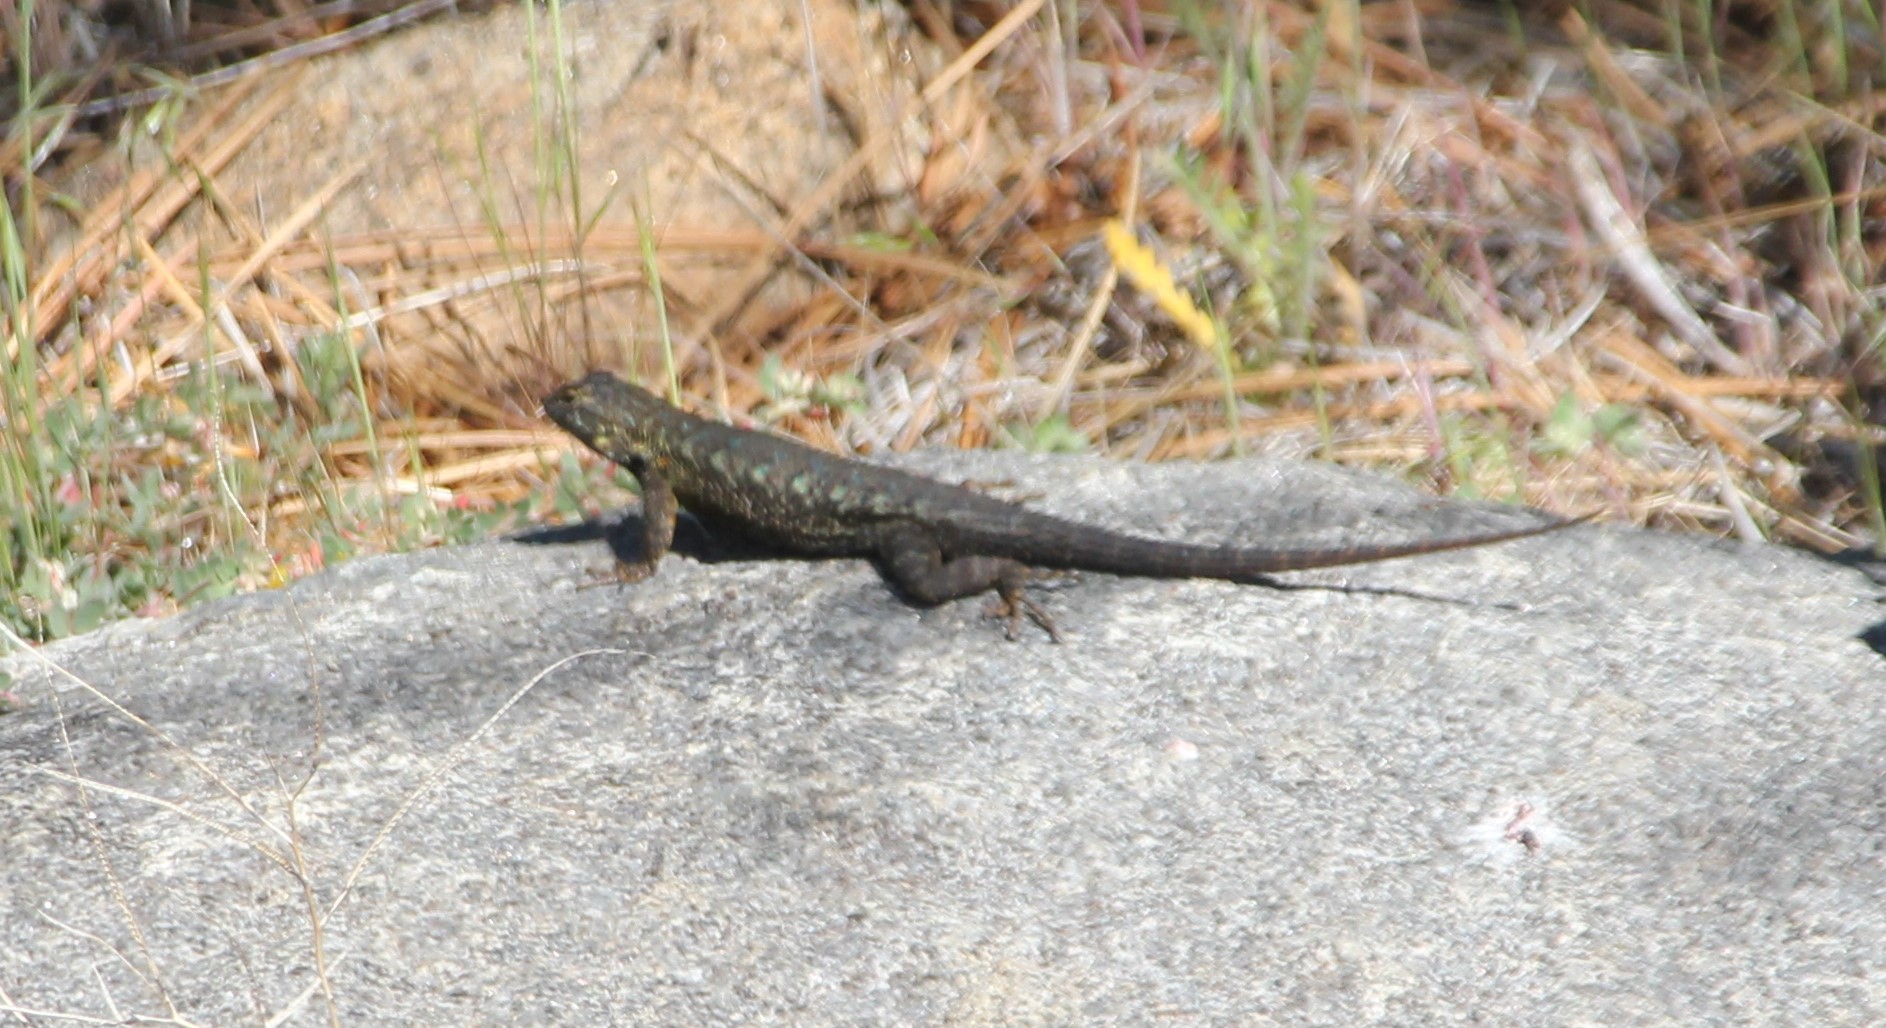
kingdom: Animalia
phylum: Chordata
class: Squamata
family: Phrynosomatidae
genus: Sceloporus
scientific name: Sceloporus occidentalis
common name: Western fence lizard
